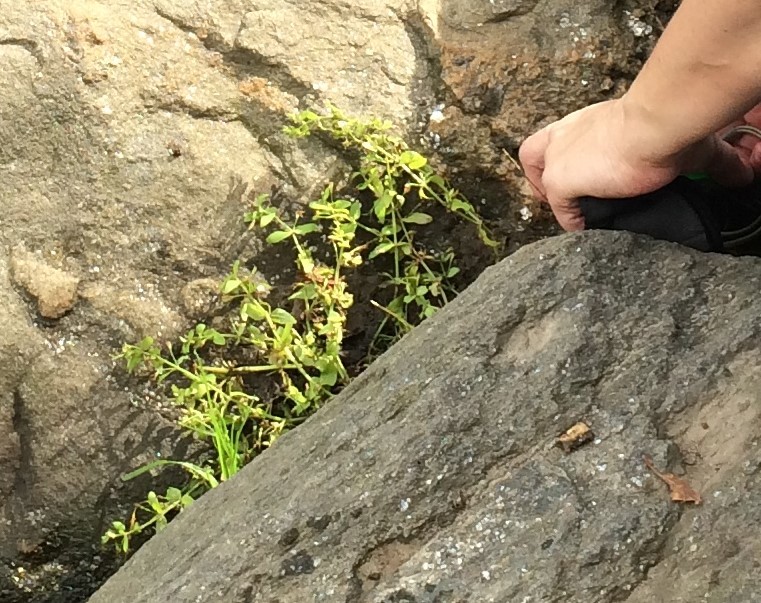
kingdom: Plantae
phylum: Tracheophyta
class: Magnoliopsida
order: Lamiales
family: Linderniaceae
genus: Lindernia
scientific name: Lindernia dubia
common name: Annual false pimpernel
